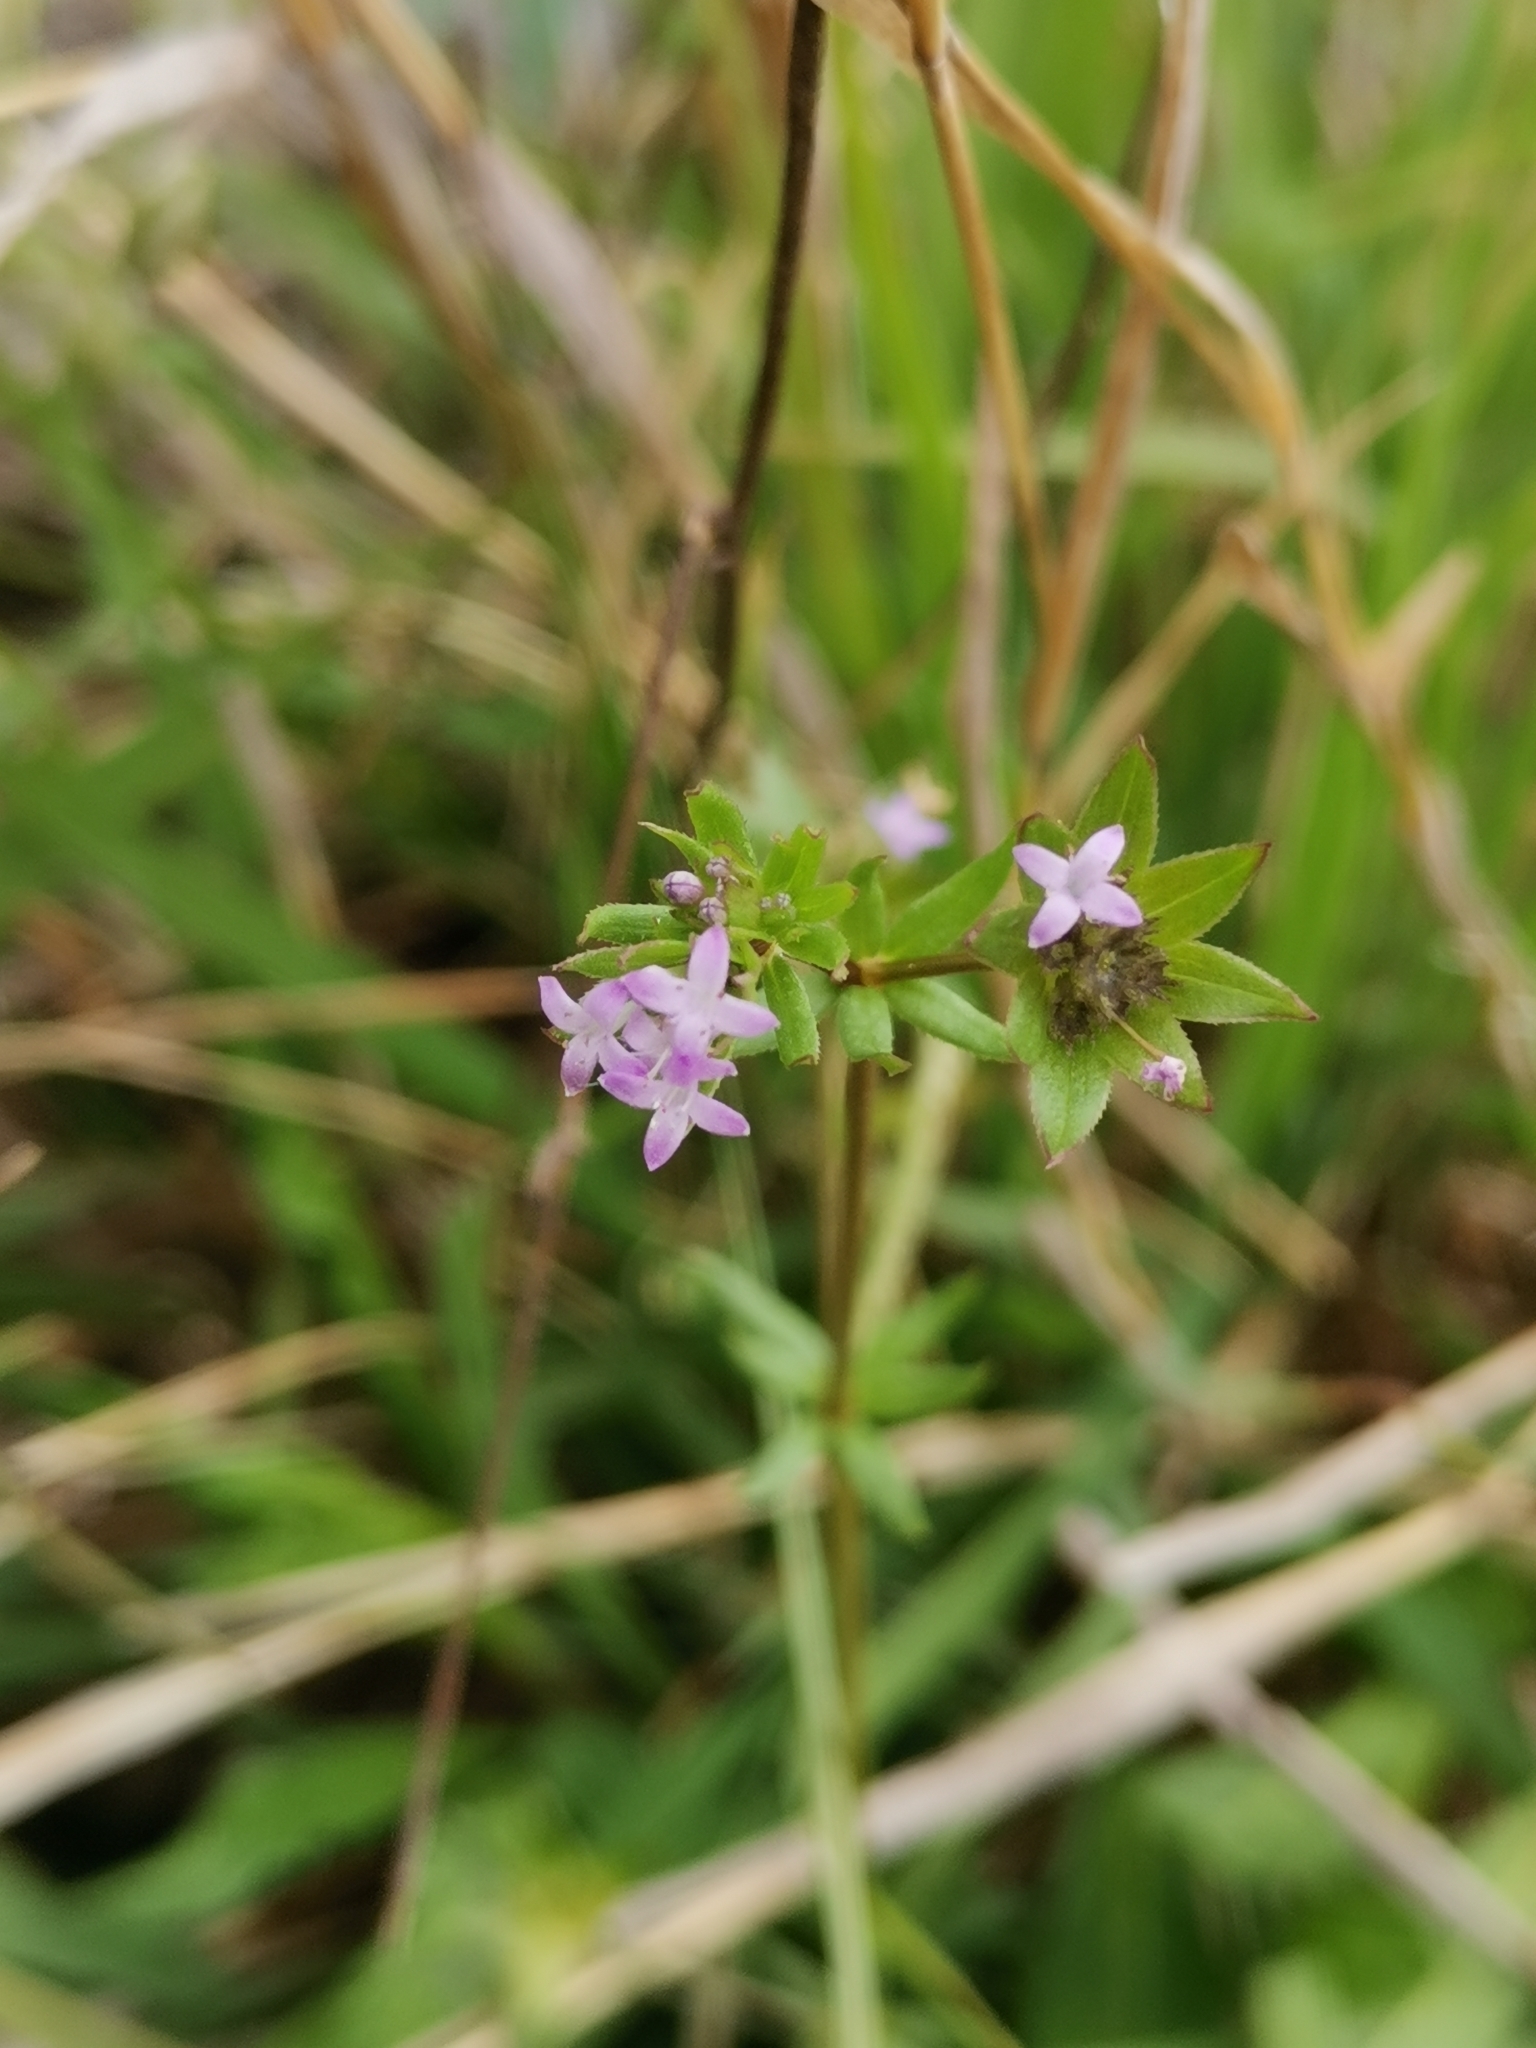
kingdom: Plantae
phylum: Tracheophyta
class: Magnoliopsida
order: Gentianales
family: Rubiaceae
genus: Sherardia
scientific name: Sherardia arvensis
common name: Field madder
